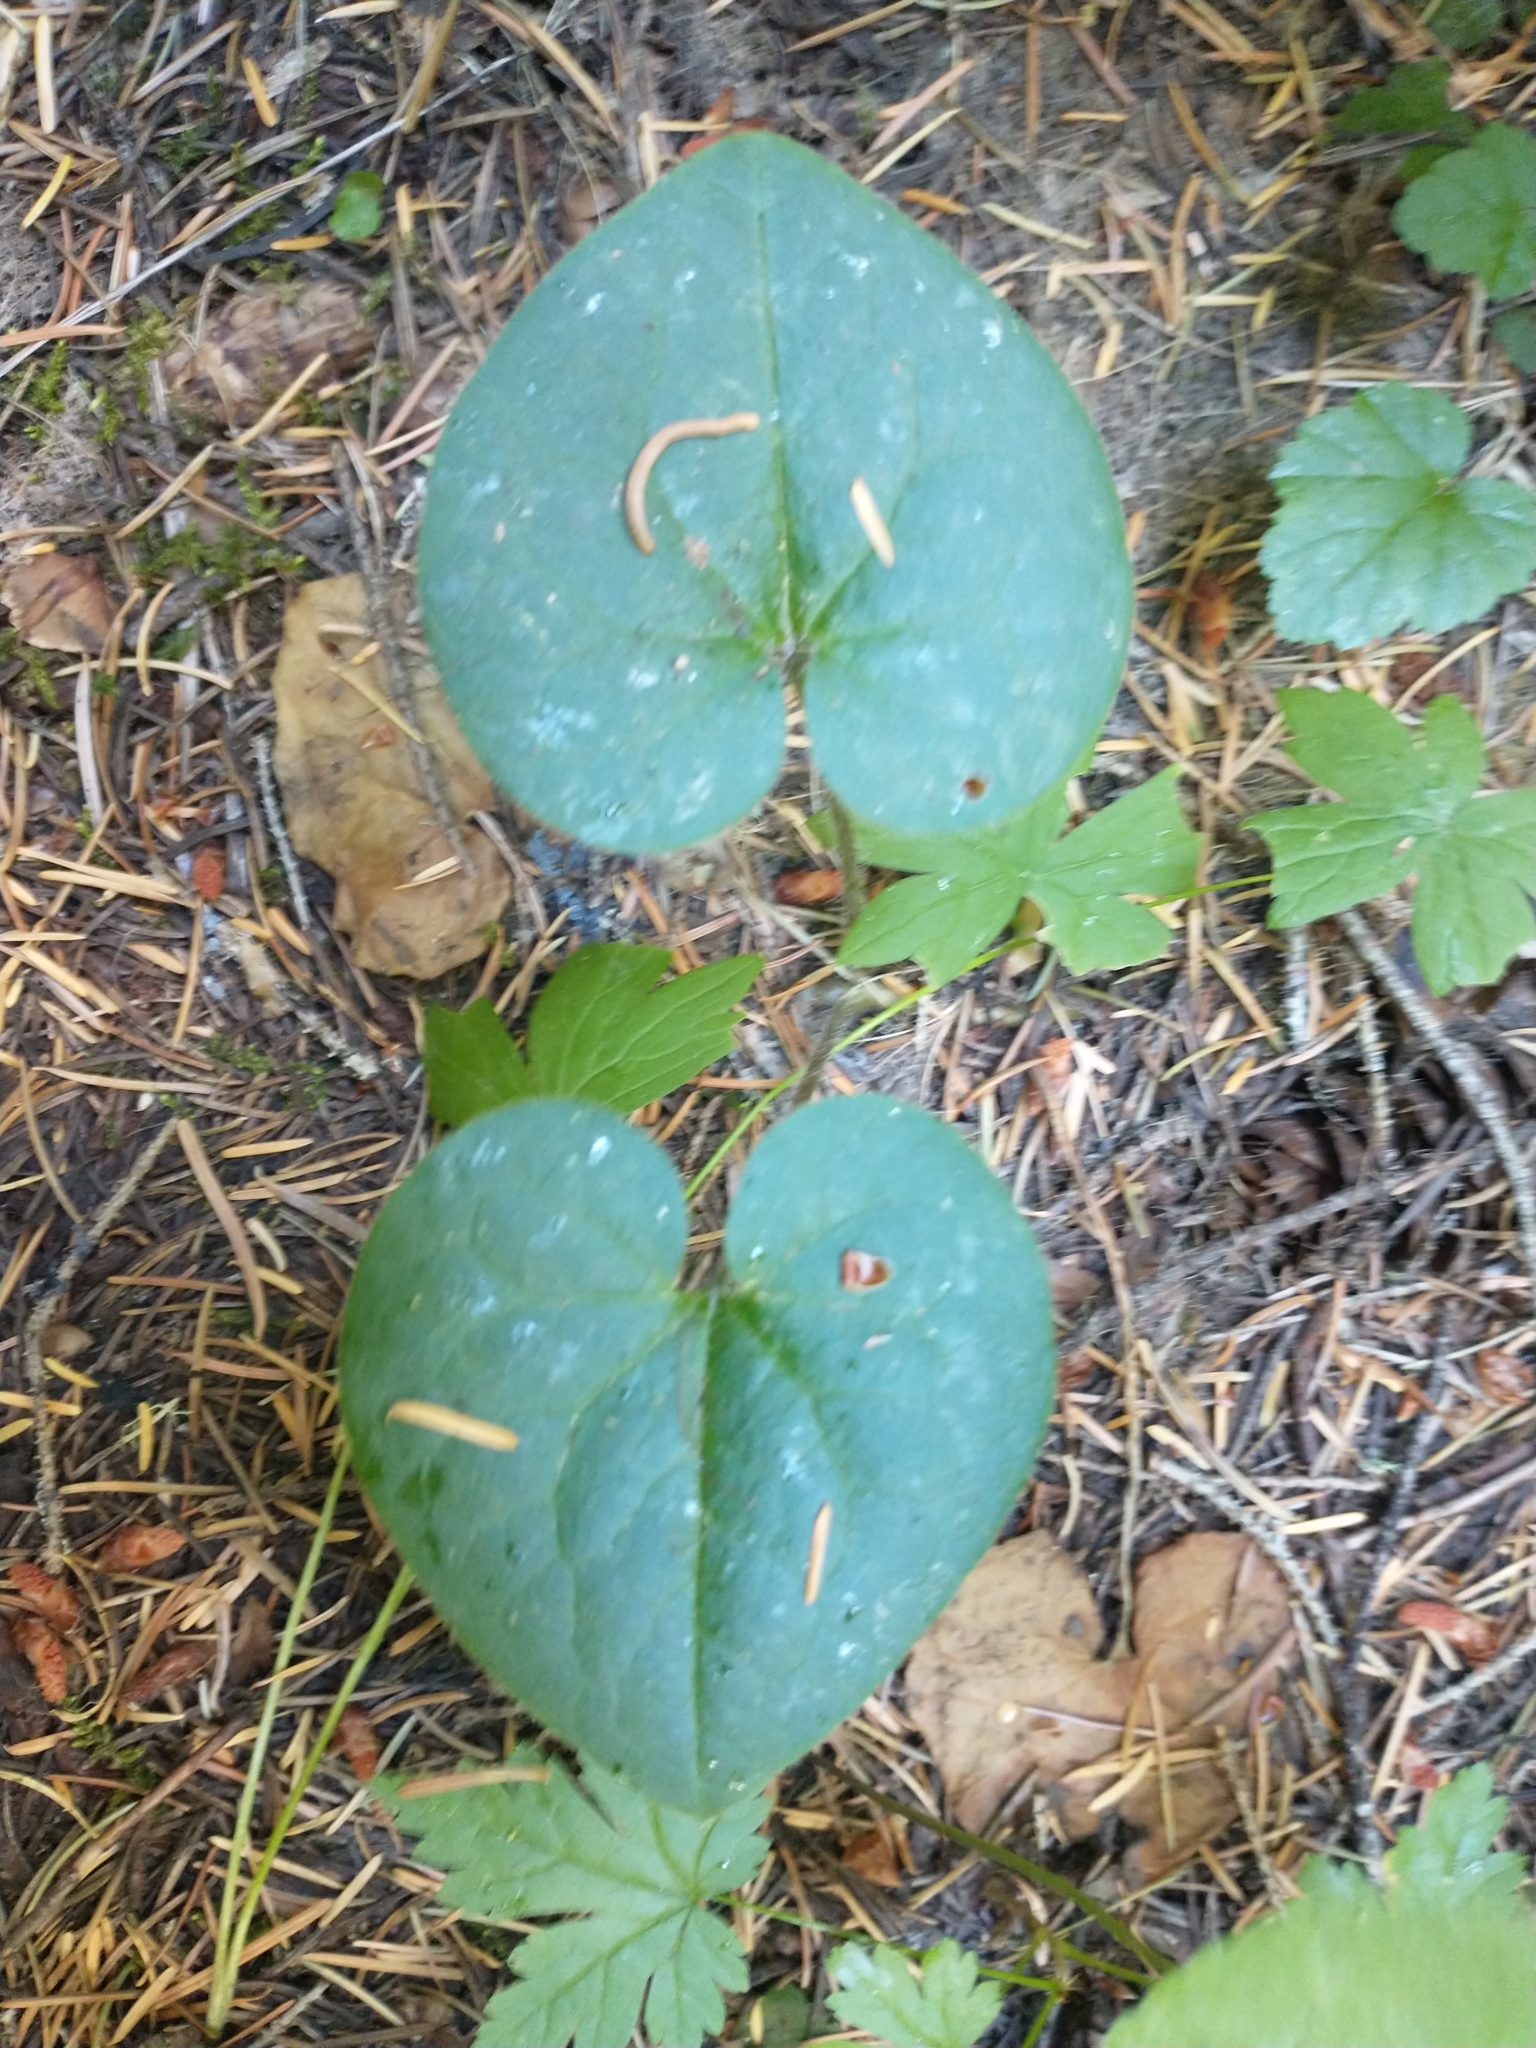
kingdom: Plantae
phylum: Tracheophyta
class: Magnoliopsida
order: Piperales
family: Aristolochiaceae
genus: Asarum
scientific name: Asarum caudatum
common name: Wild ginger
